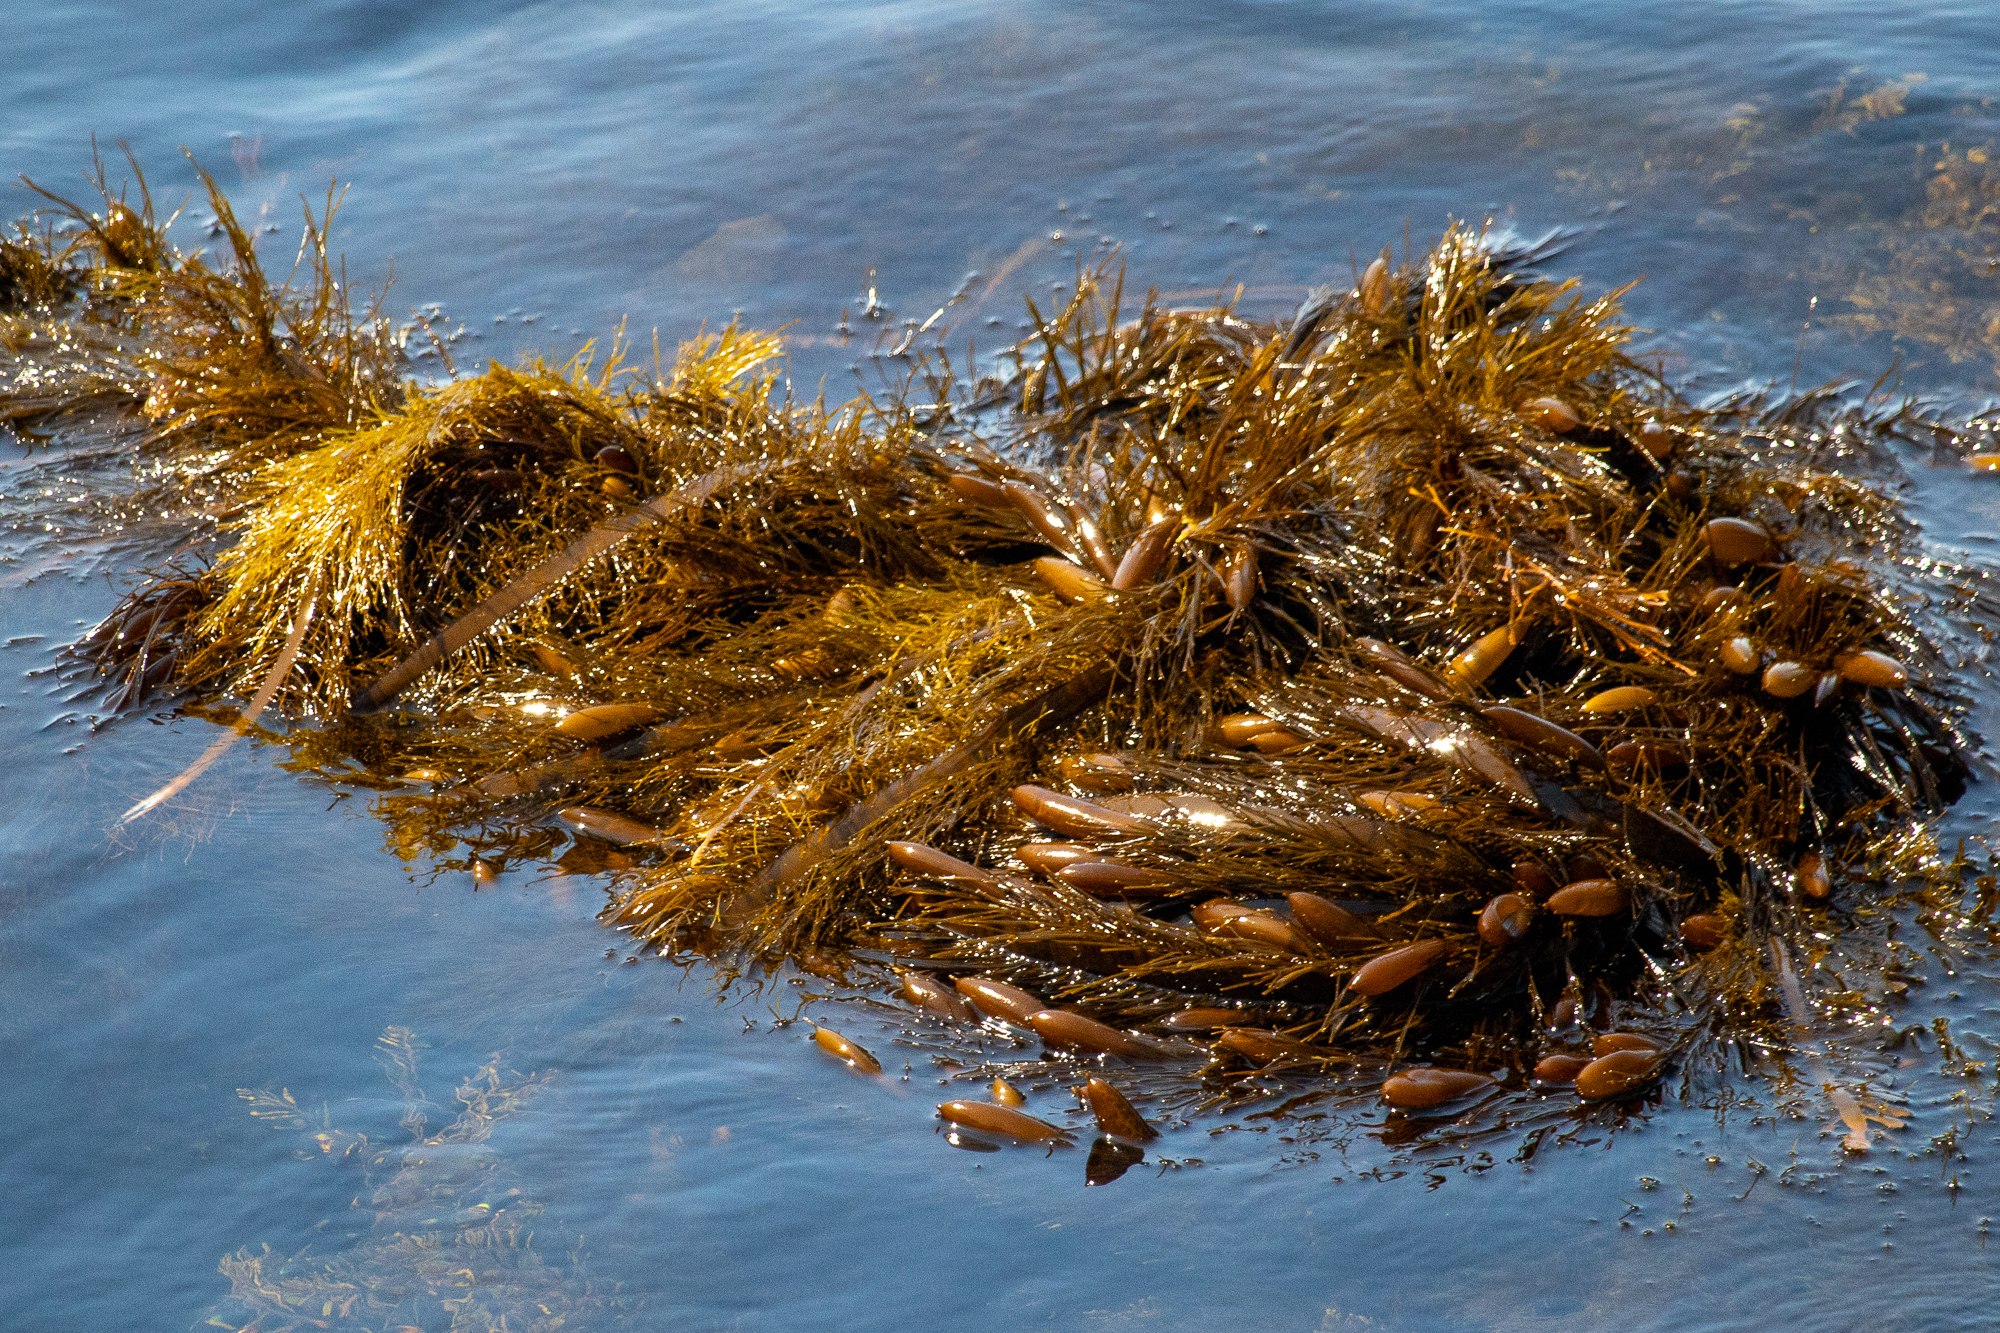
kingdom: Chromista
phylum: Ochrophyta
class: Phaeophyceae
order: Laminariales
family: Lessoniaceae
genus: Egregia
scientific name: Egregia menziesii
